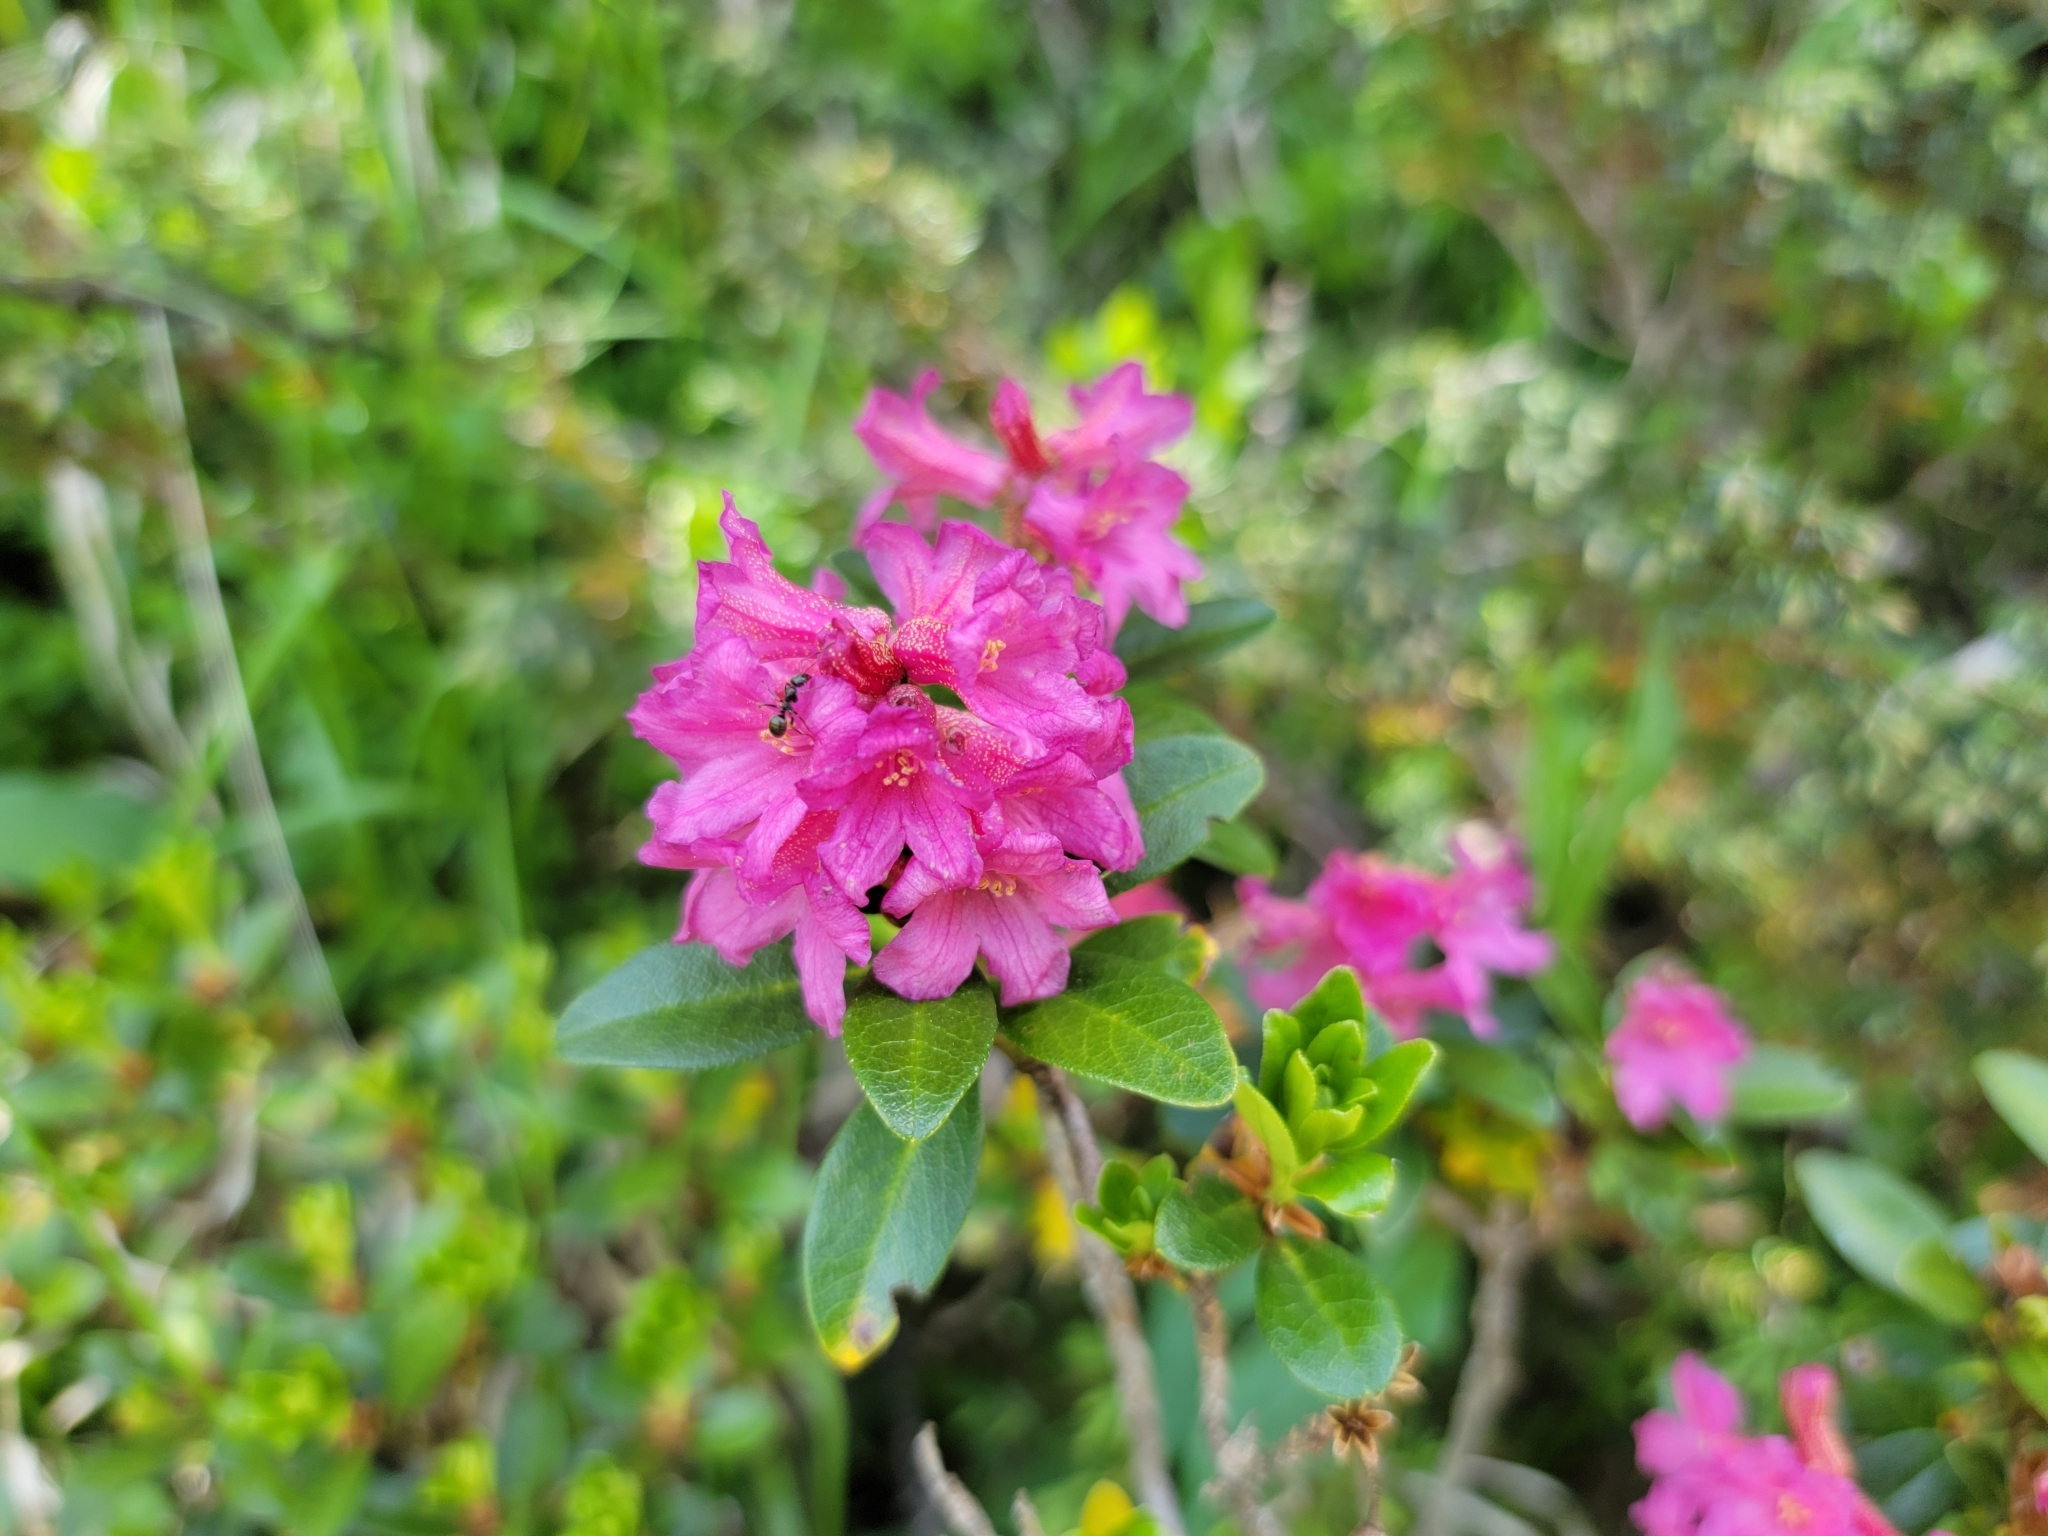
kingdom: Plantae
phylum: Tracheophyta
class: Magnoliopsida
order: Ericales
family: Ericaceae
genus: Rhododendron
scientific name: Rhododendron ferrugineum
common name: Alpenrose
